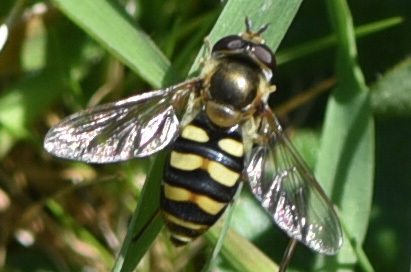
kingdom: Animalia
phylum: Arthropoda
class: Insecta
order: Diptera
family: Syrphidae
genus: Eupeodes
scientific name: Eupeodes fumipennis
